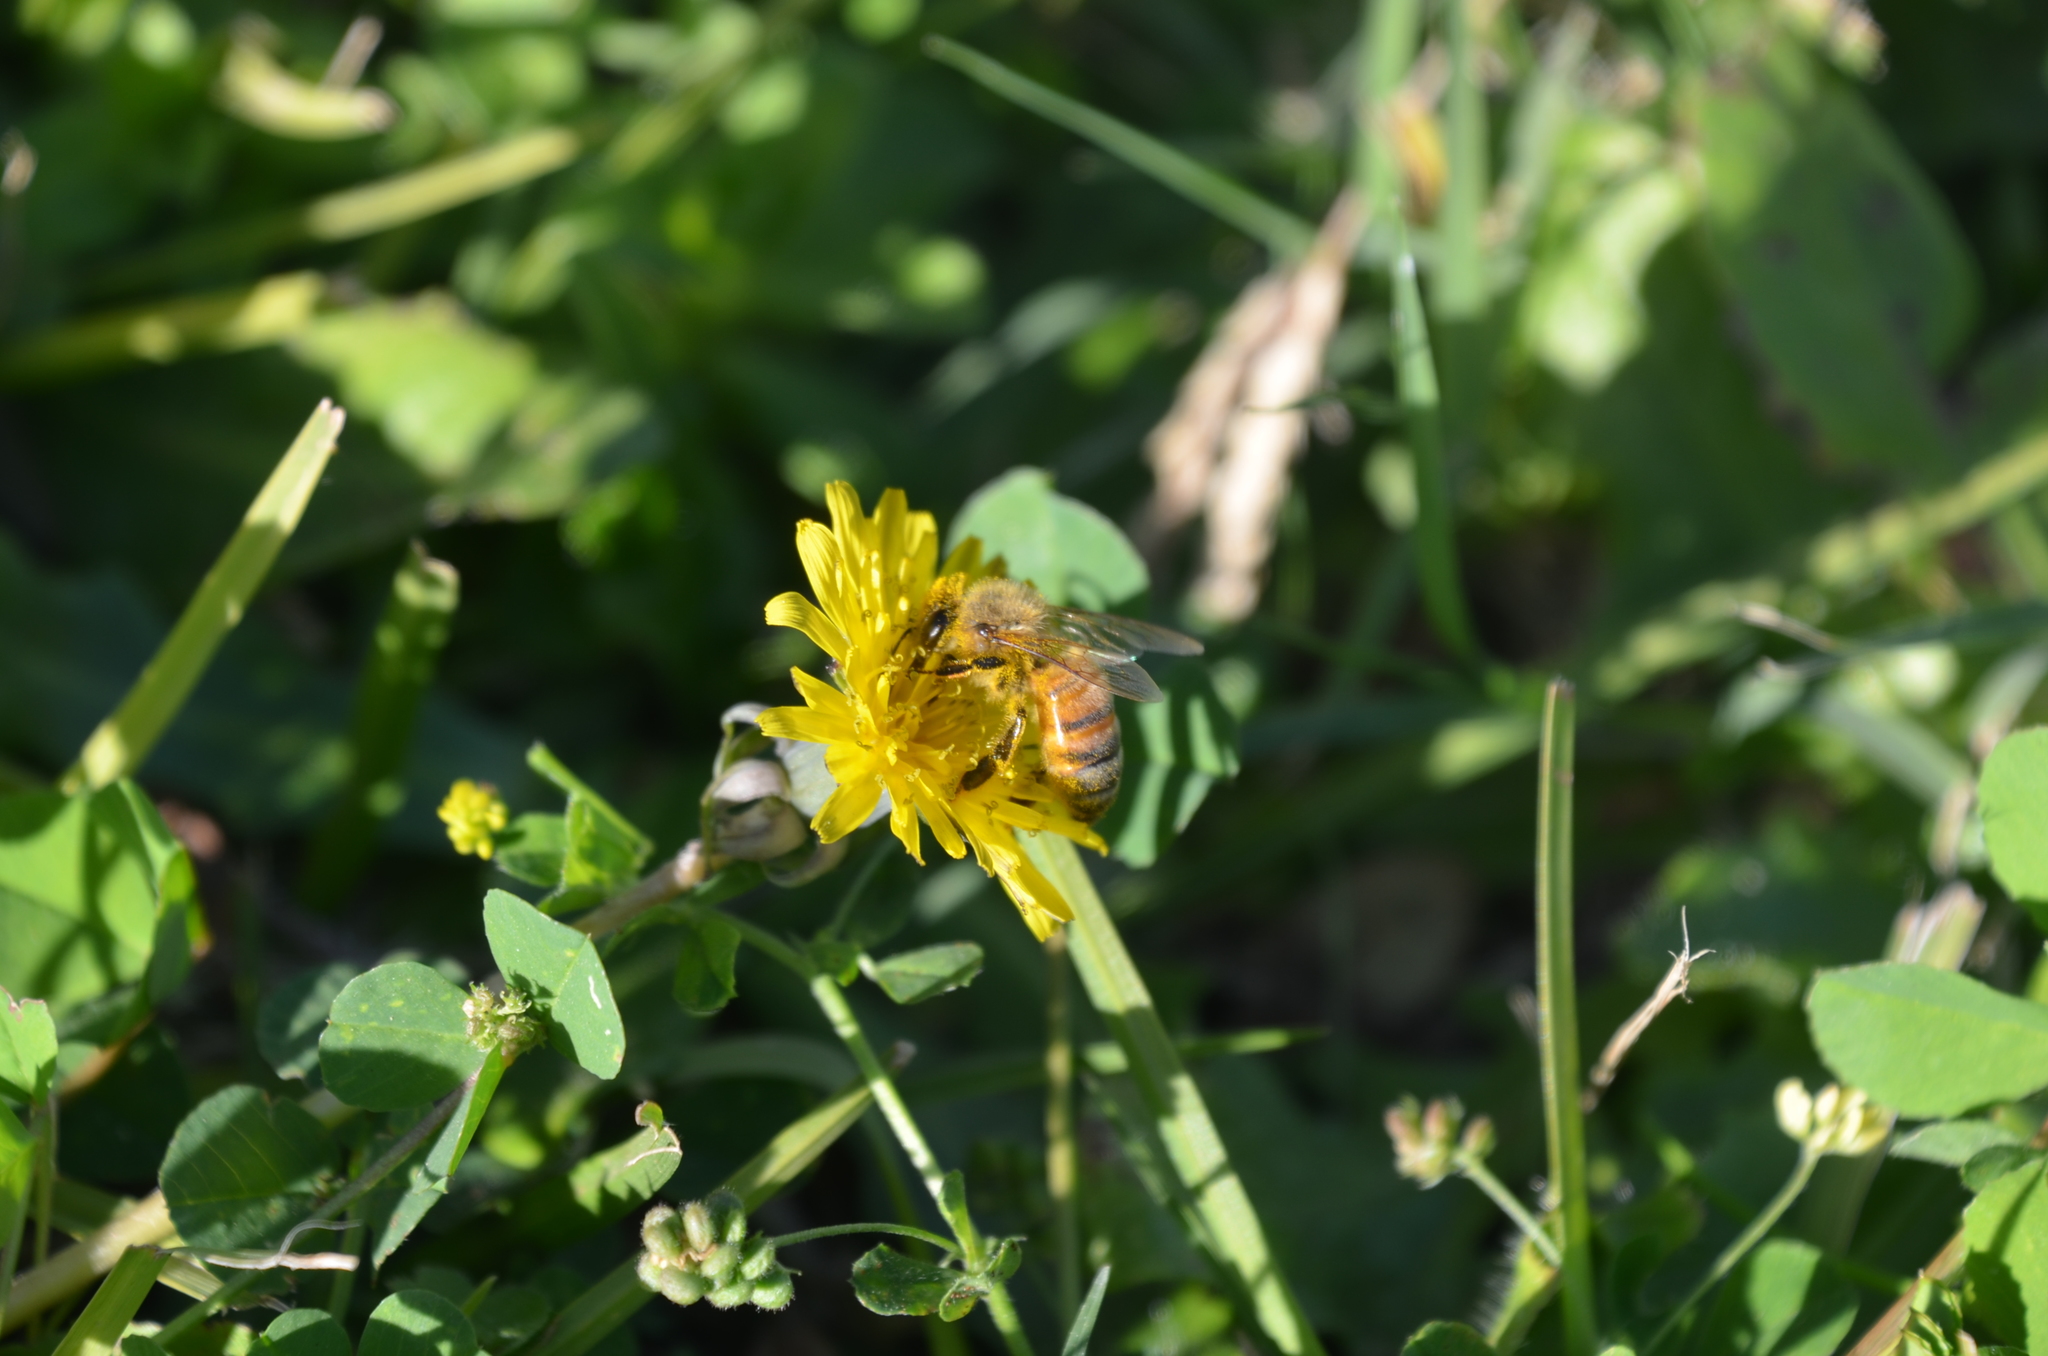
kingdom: Animalia
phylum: Arthropoda
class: Insecta
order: Hymenoptera
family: Apidae
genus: Apis
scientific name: Apis mellifera
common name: Honey bee
